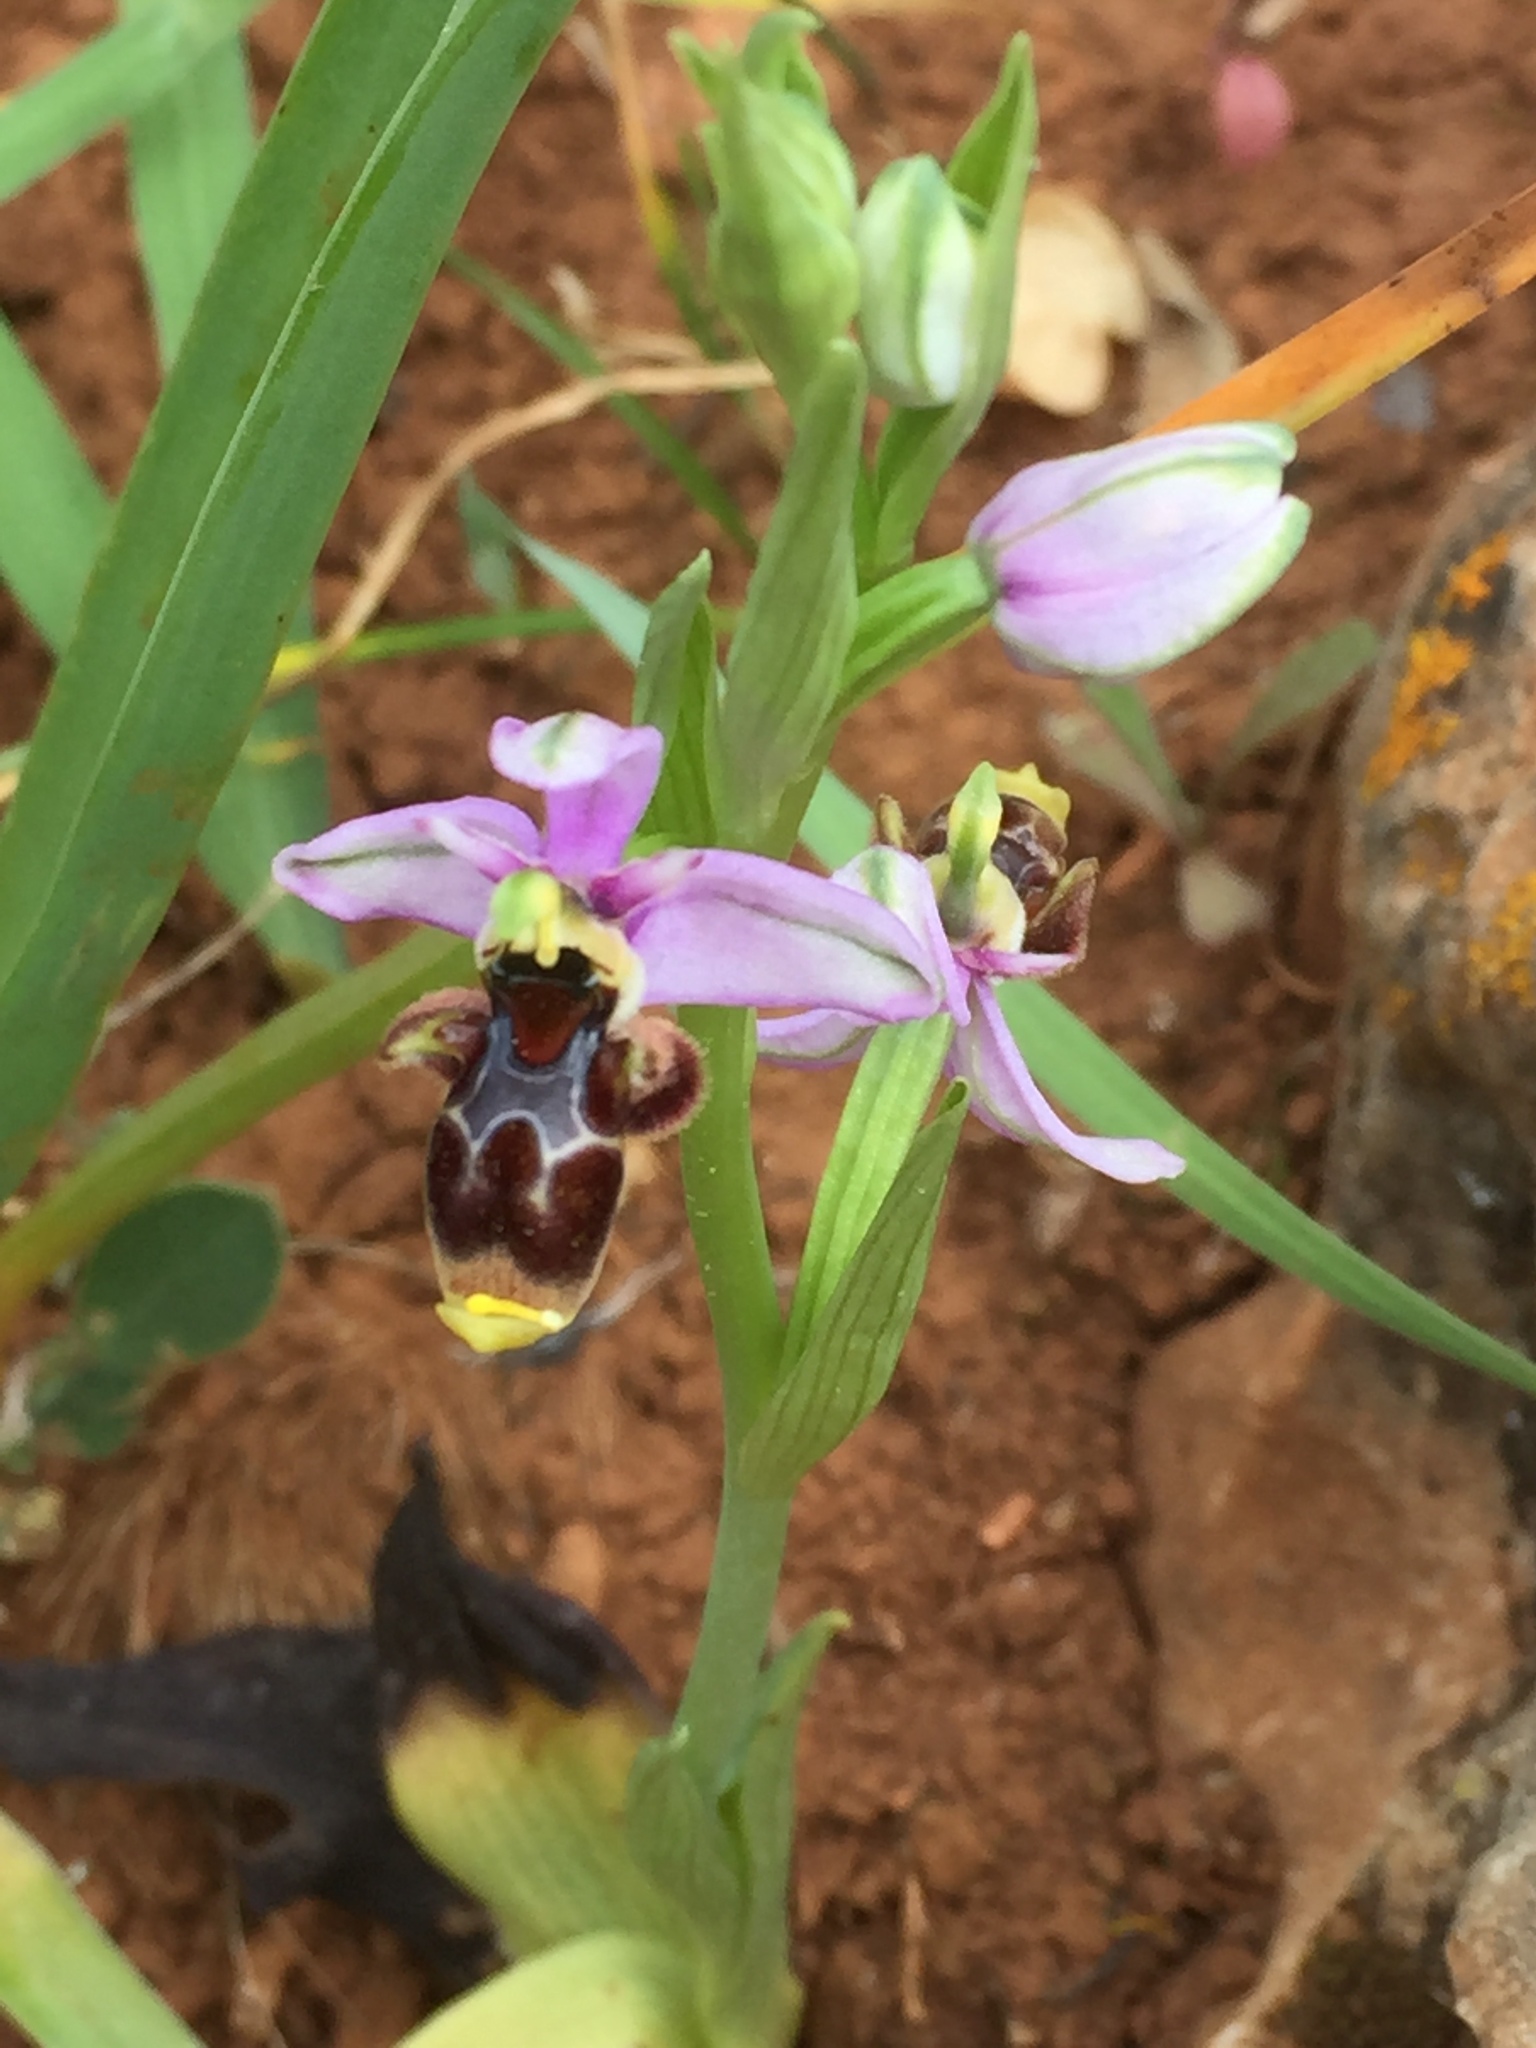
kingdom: Plantae
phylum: Tracheophyta
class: Liliopsida
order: Asparagales
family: Orchidaceae
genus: Ophrys
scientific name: Ophrys scolopax
